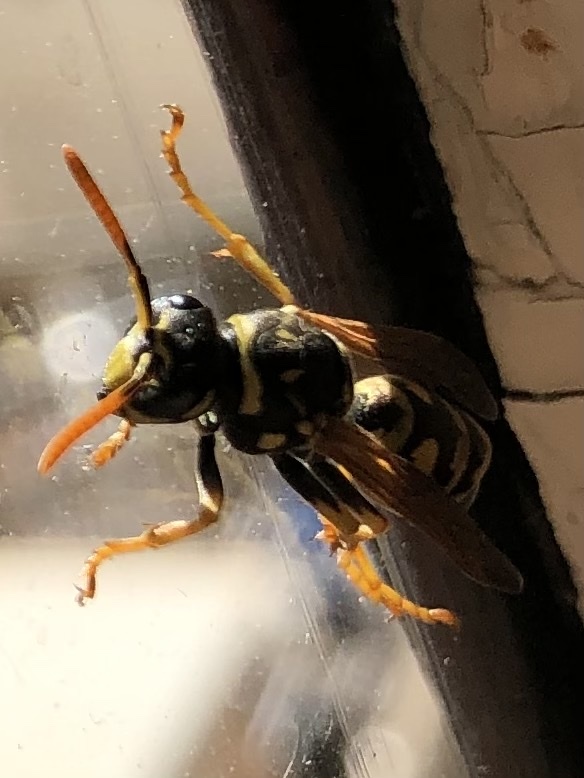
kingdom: Animalia
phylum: Arthropoda
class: Insecta
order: Hymenoptera
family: Eumenidae
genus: Polistes
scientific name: Polistes dominula
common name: Paper wasp
